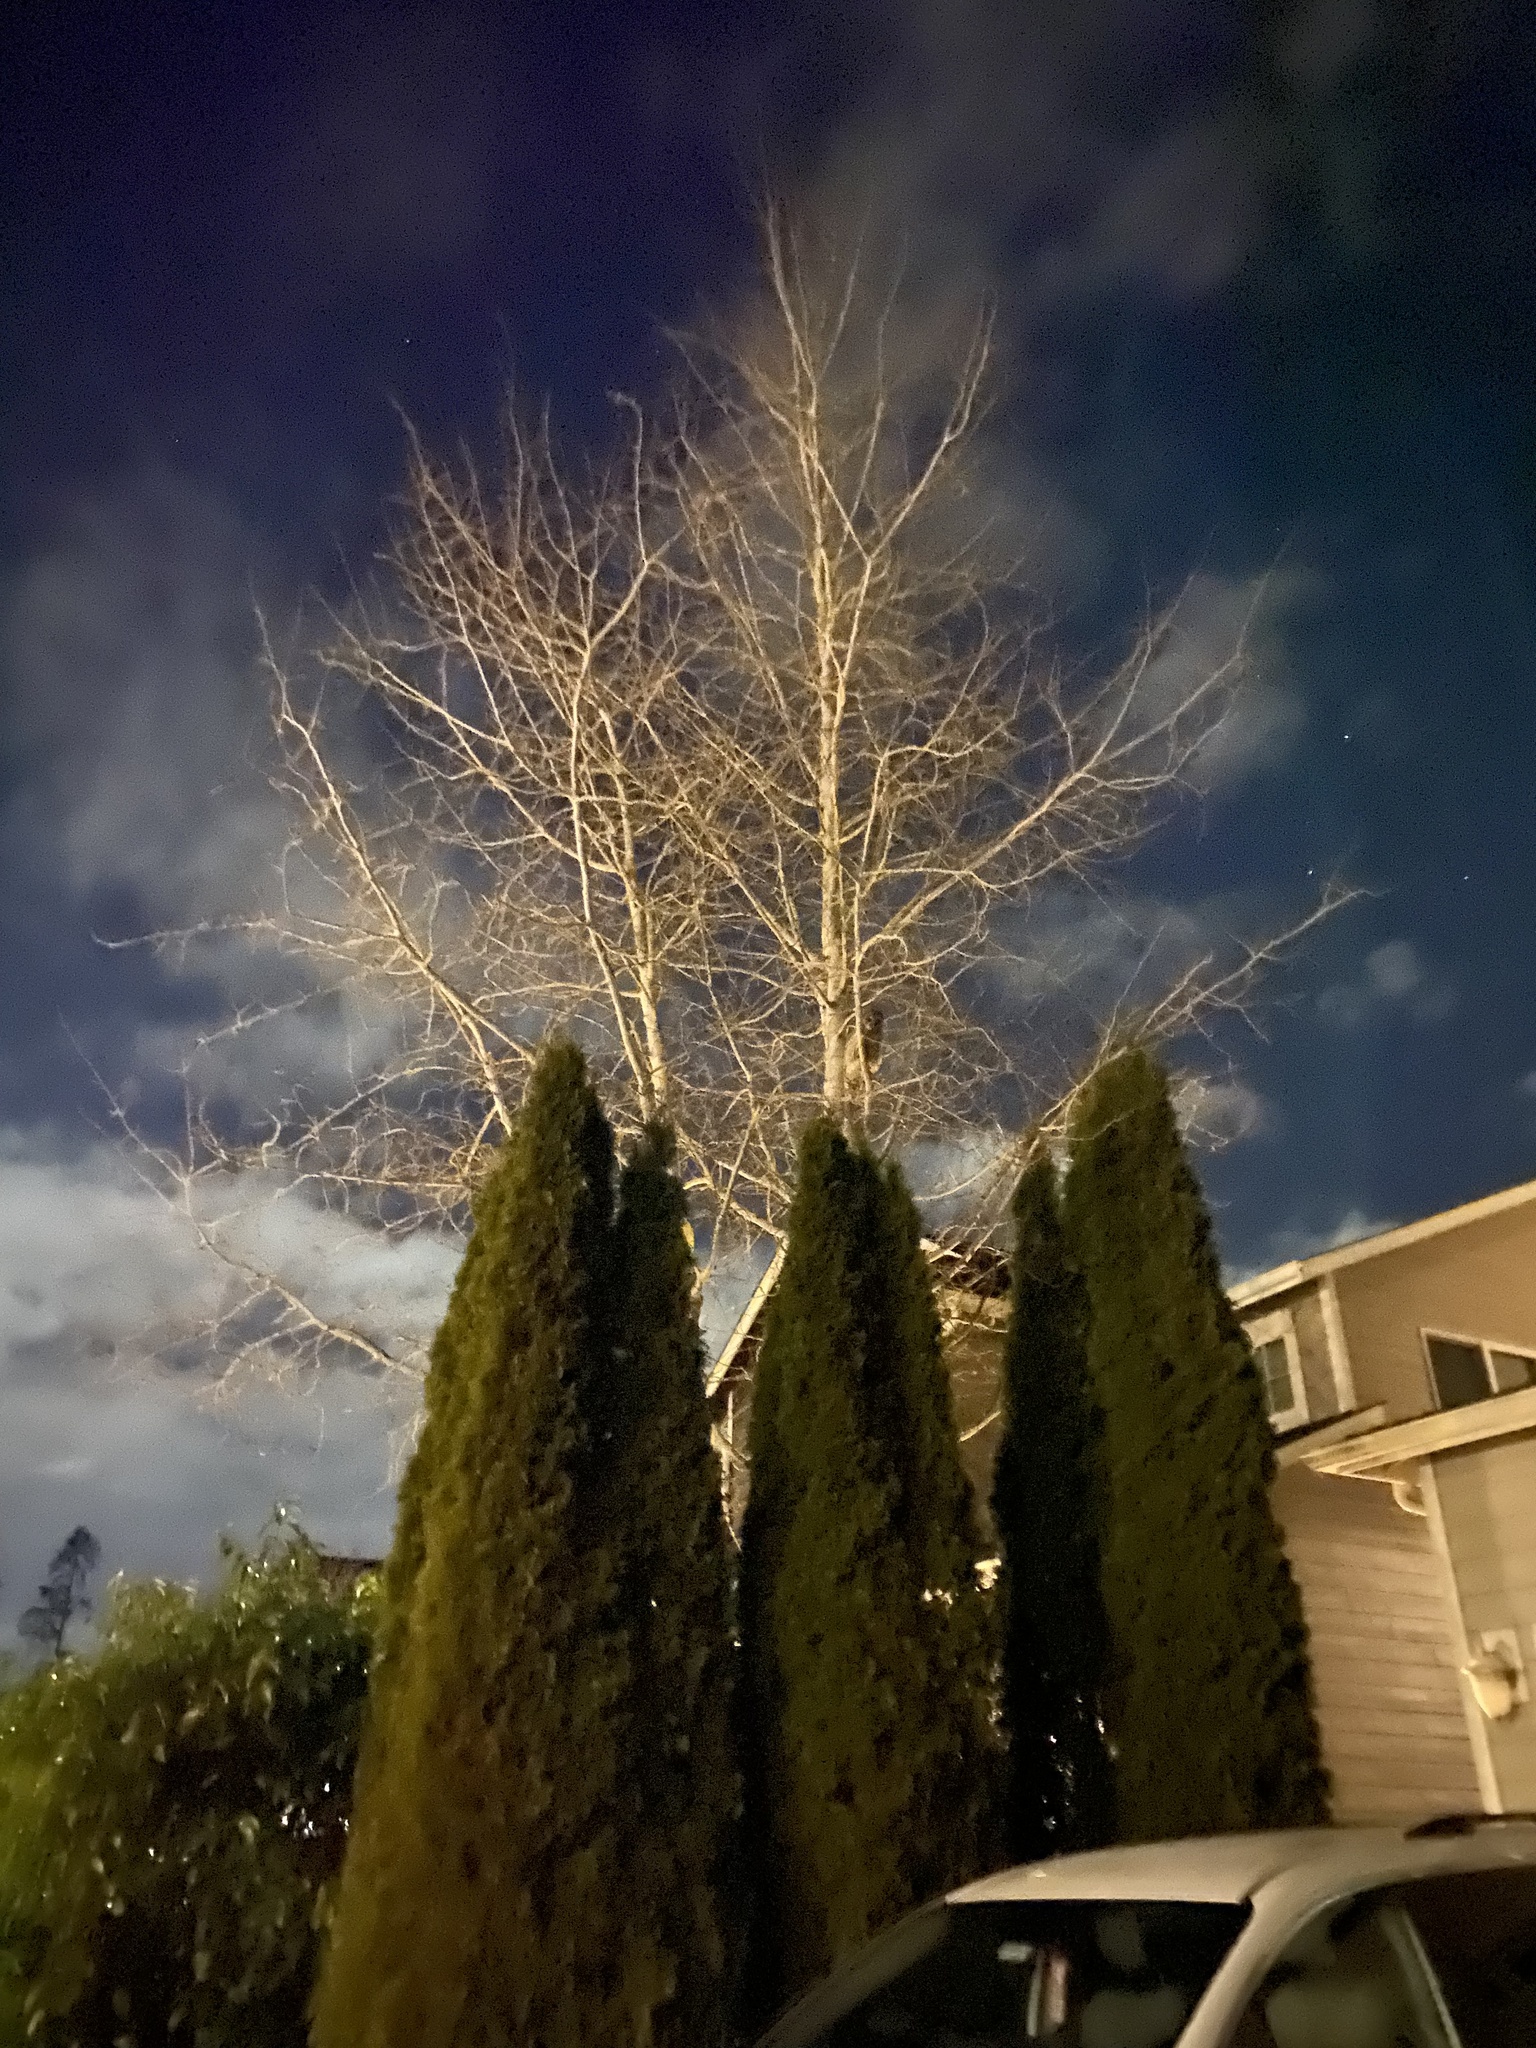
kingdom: Animalia
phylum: Chordata
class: Aves
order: Strigiformes
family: Strigidae
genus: Strix
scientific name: Strix varia
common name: Barred owl
